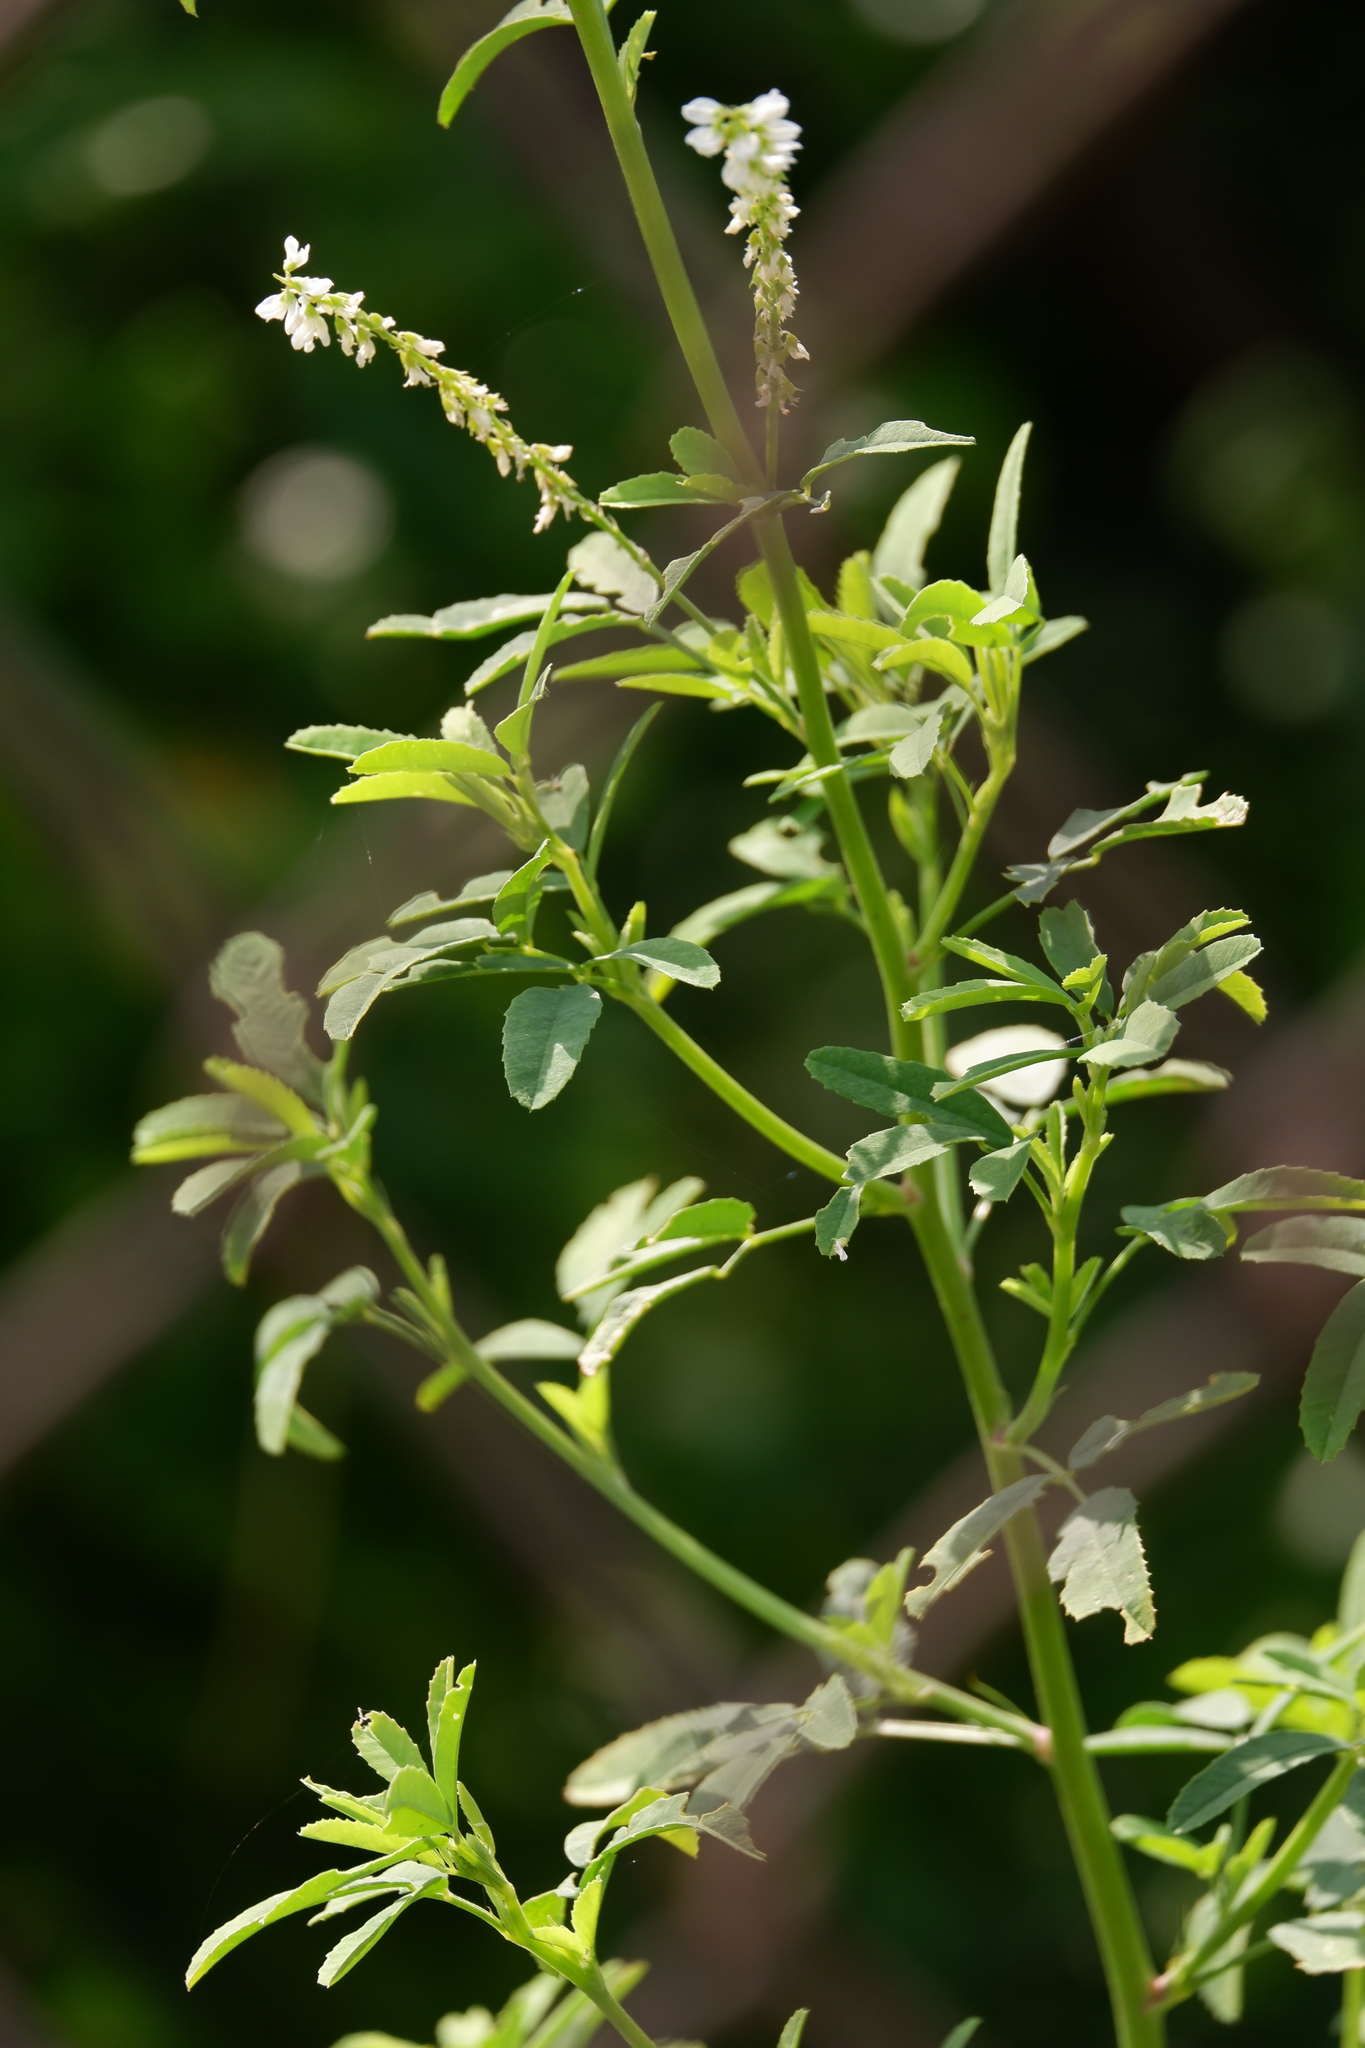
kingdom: Plantae
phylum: Tracheophyta
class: Magnoliopsida
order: Fabales
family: Fabaceae
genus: Melilotus
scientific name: Melilotus albus
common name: White melilot
